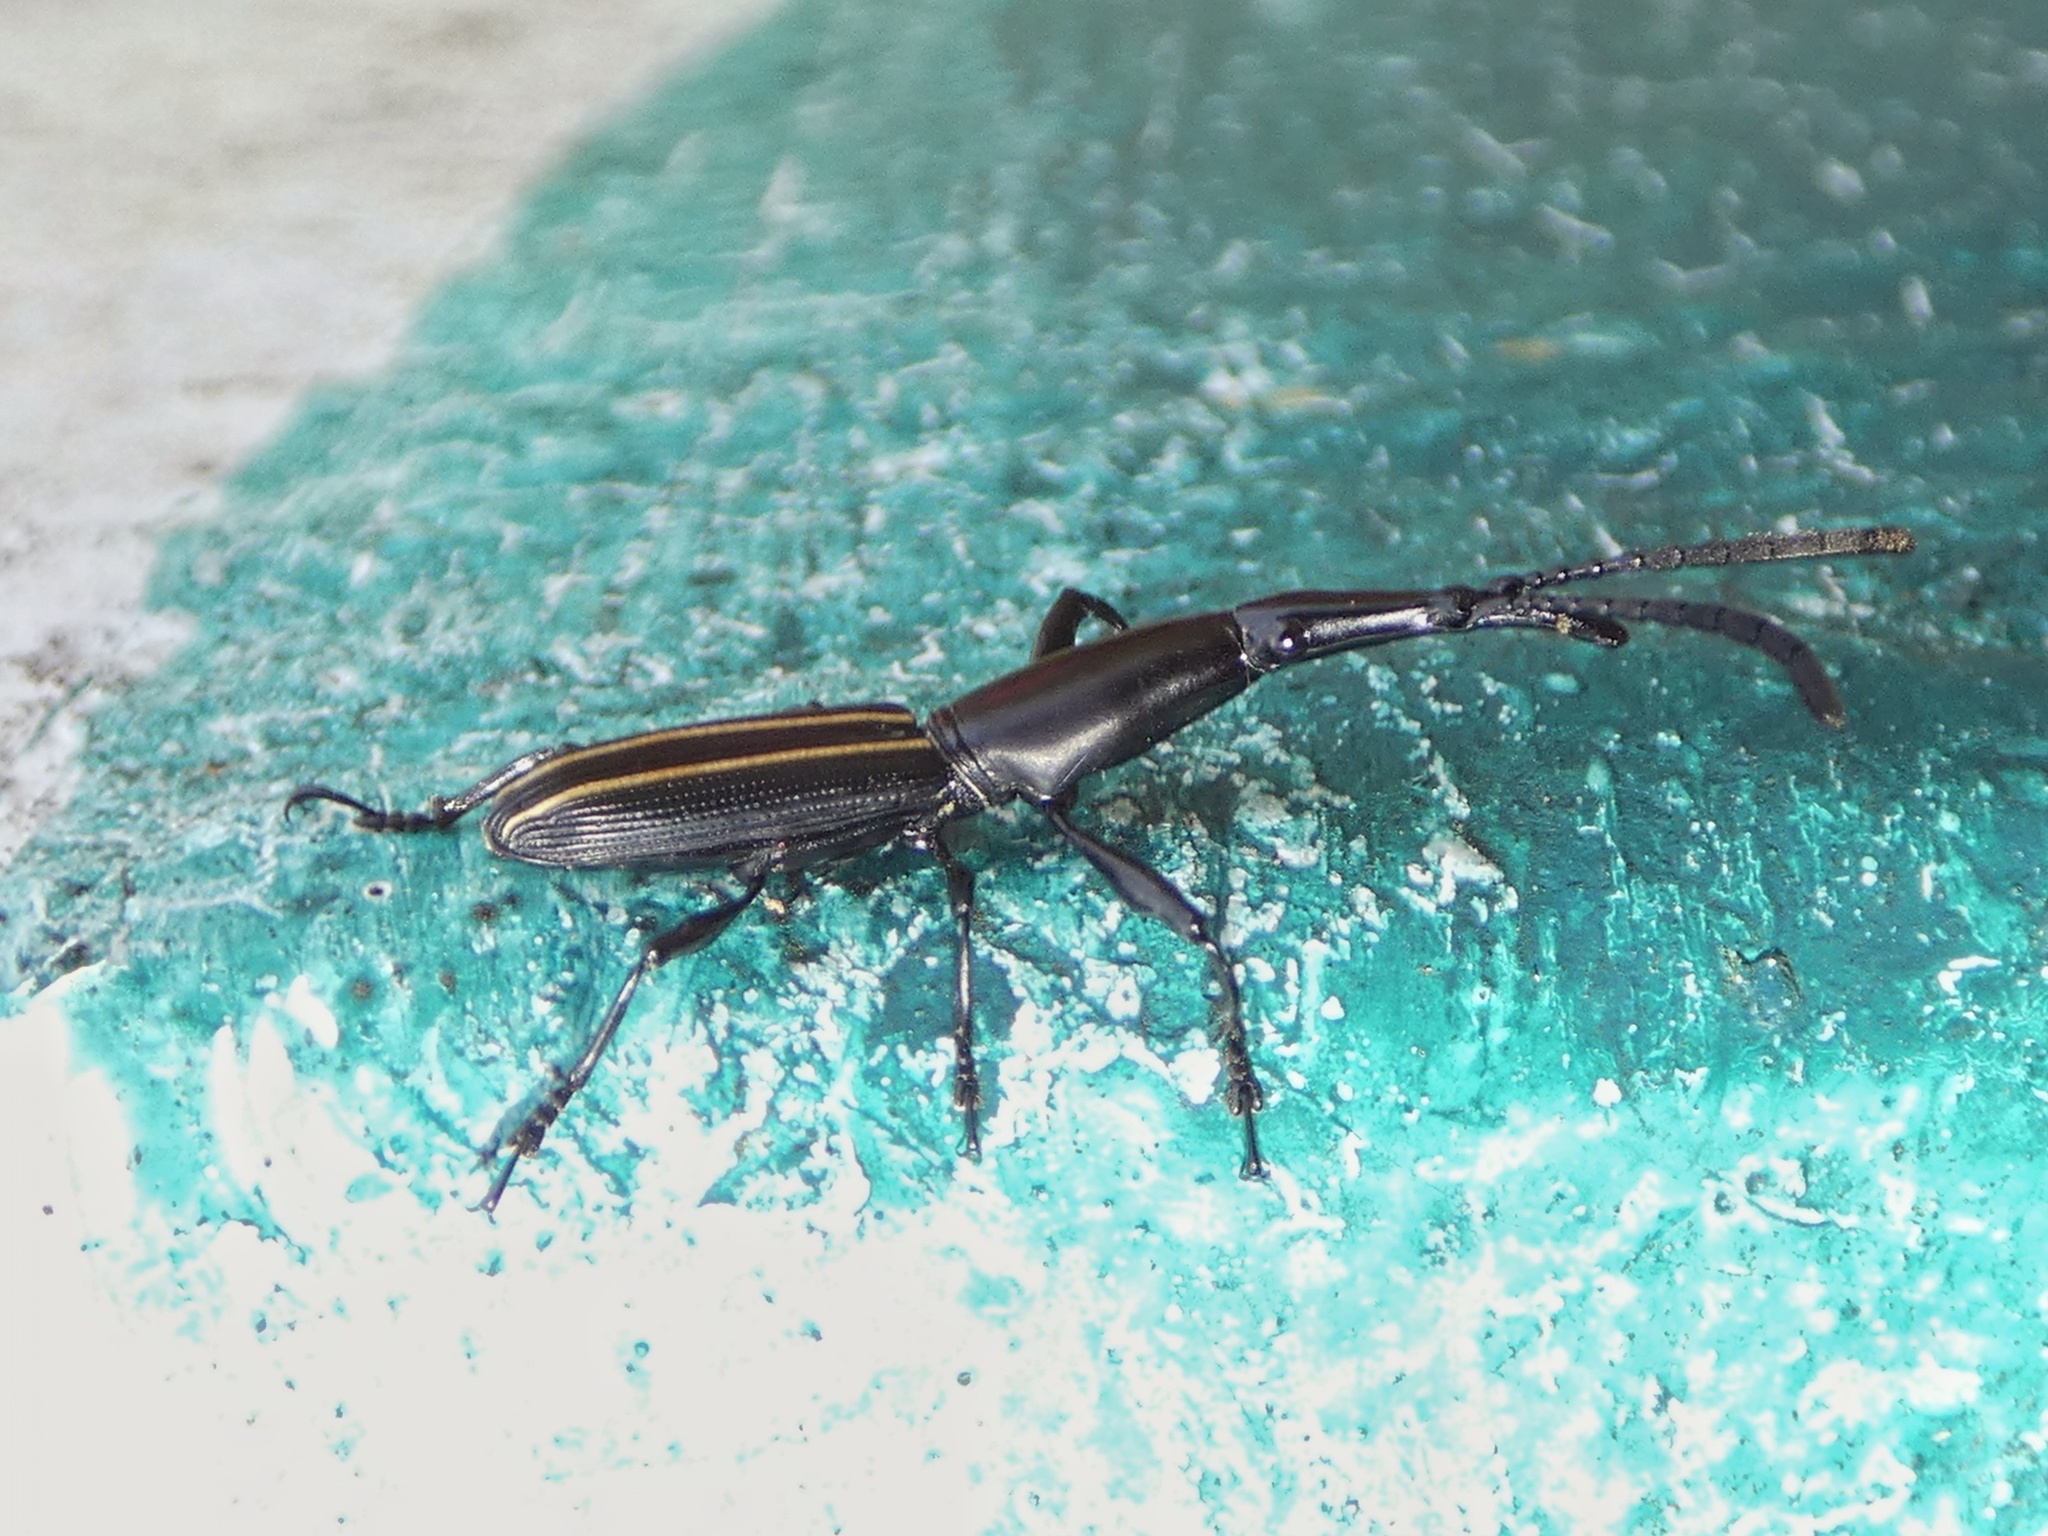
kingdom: Animalia
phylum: Arthropoda
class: Insecta
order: Coleoptera
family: Brentidae
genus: Claeoderes
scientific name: Claeoderes radulirostris
